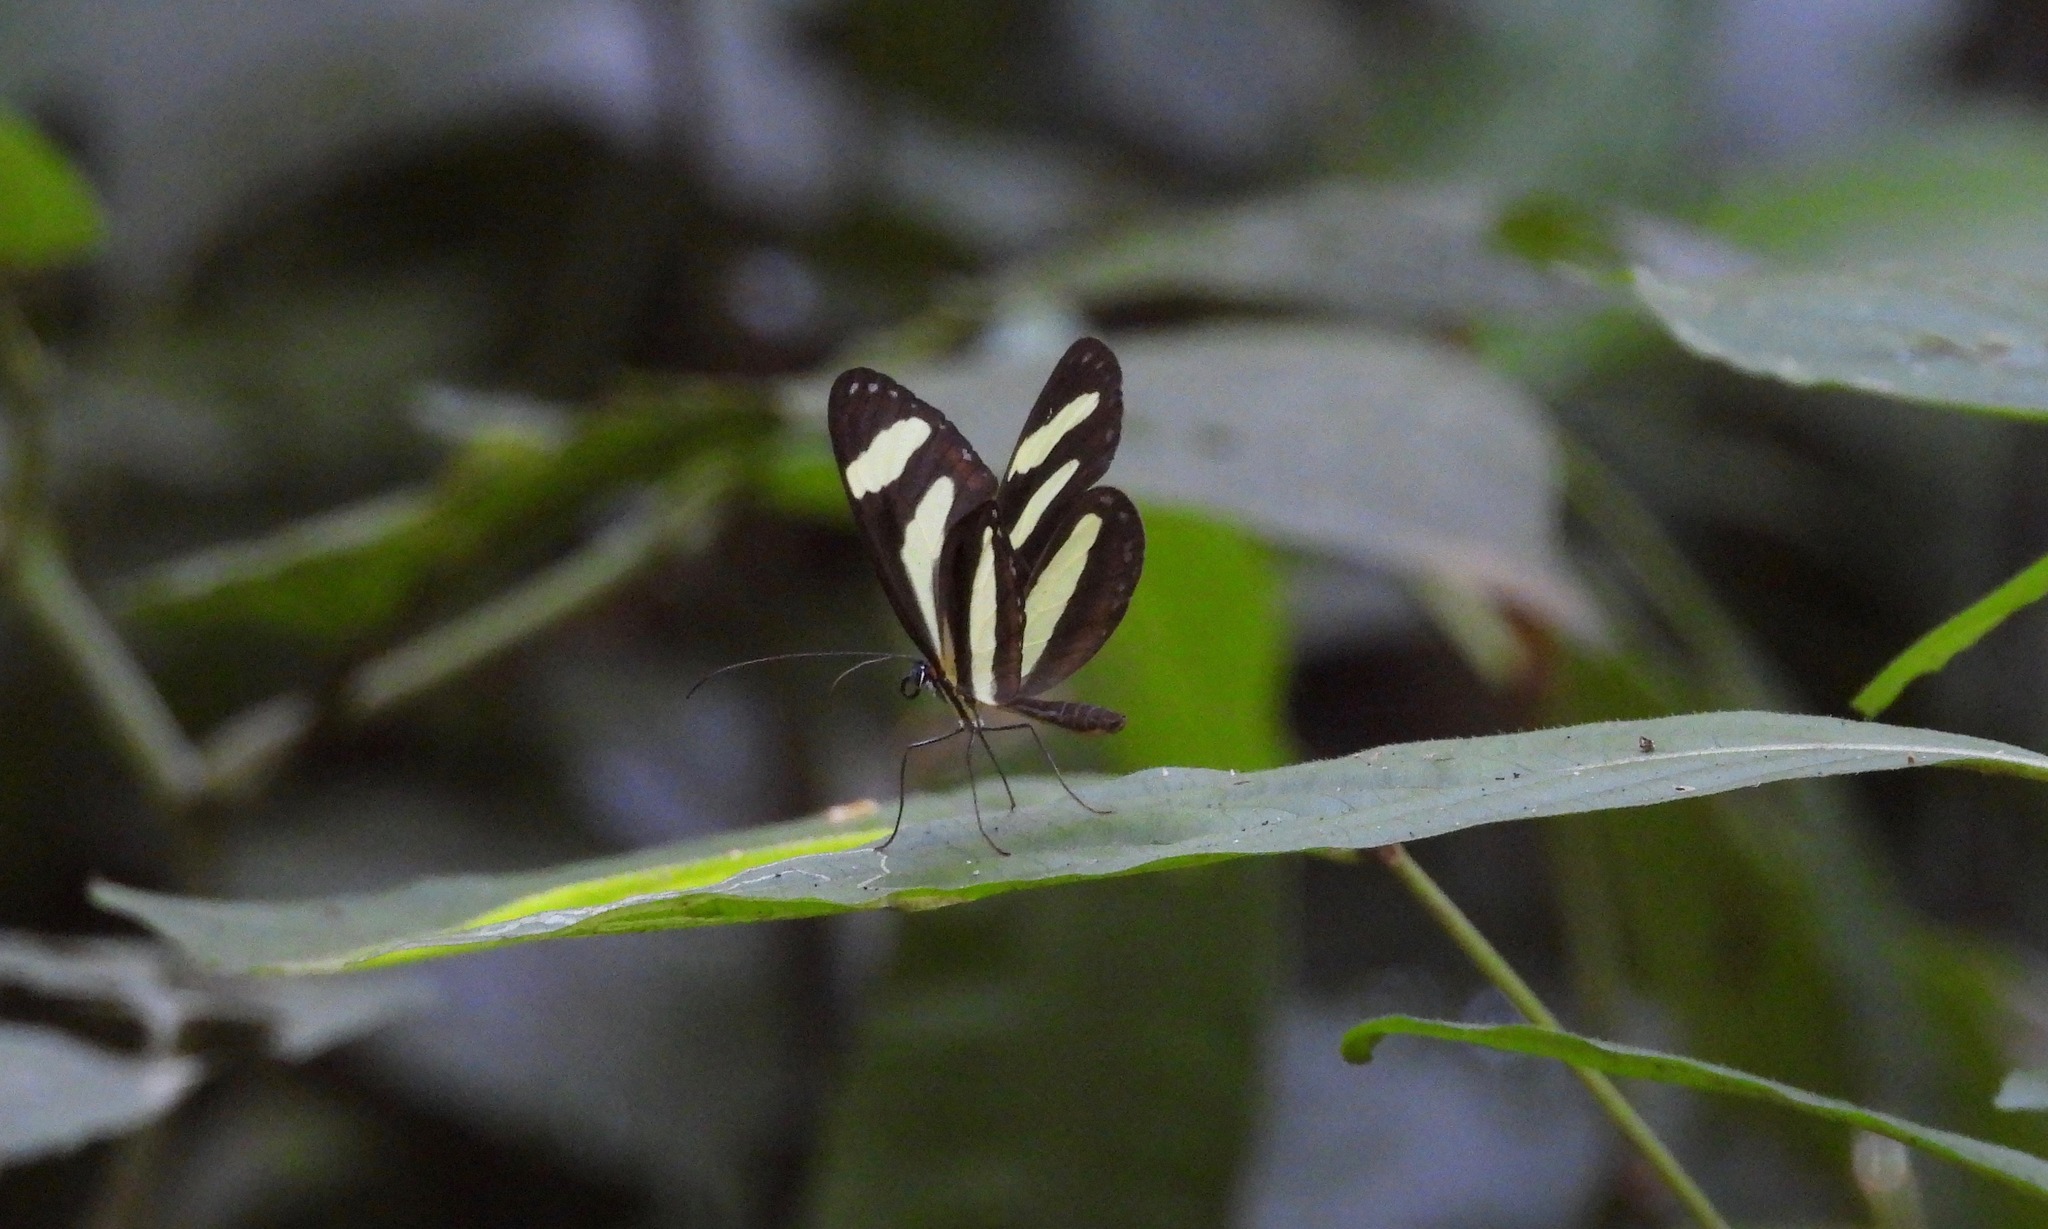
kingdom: Animalia
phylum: Arthropoda
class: Insecta
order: Lepidoptera
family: Nymphalidae
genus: Aeria
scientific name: Aeria eurimedia
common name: Banded tigerwing
